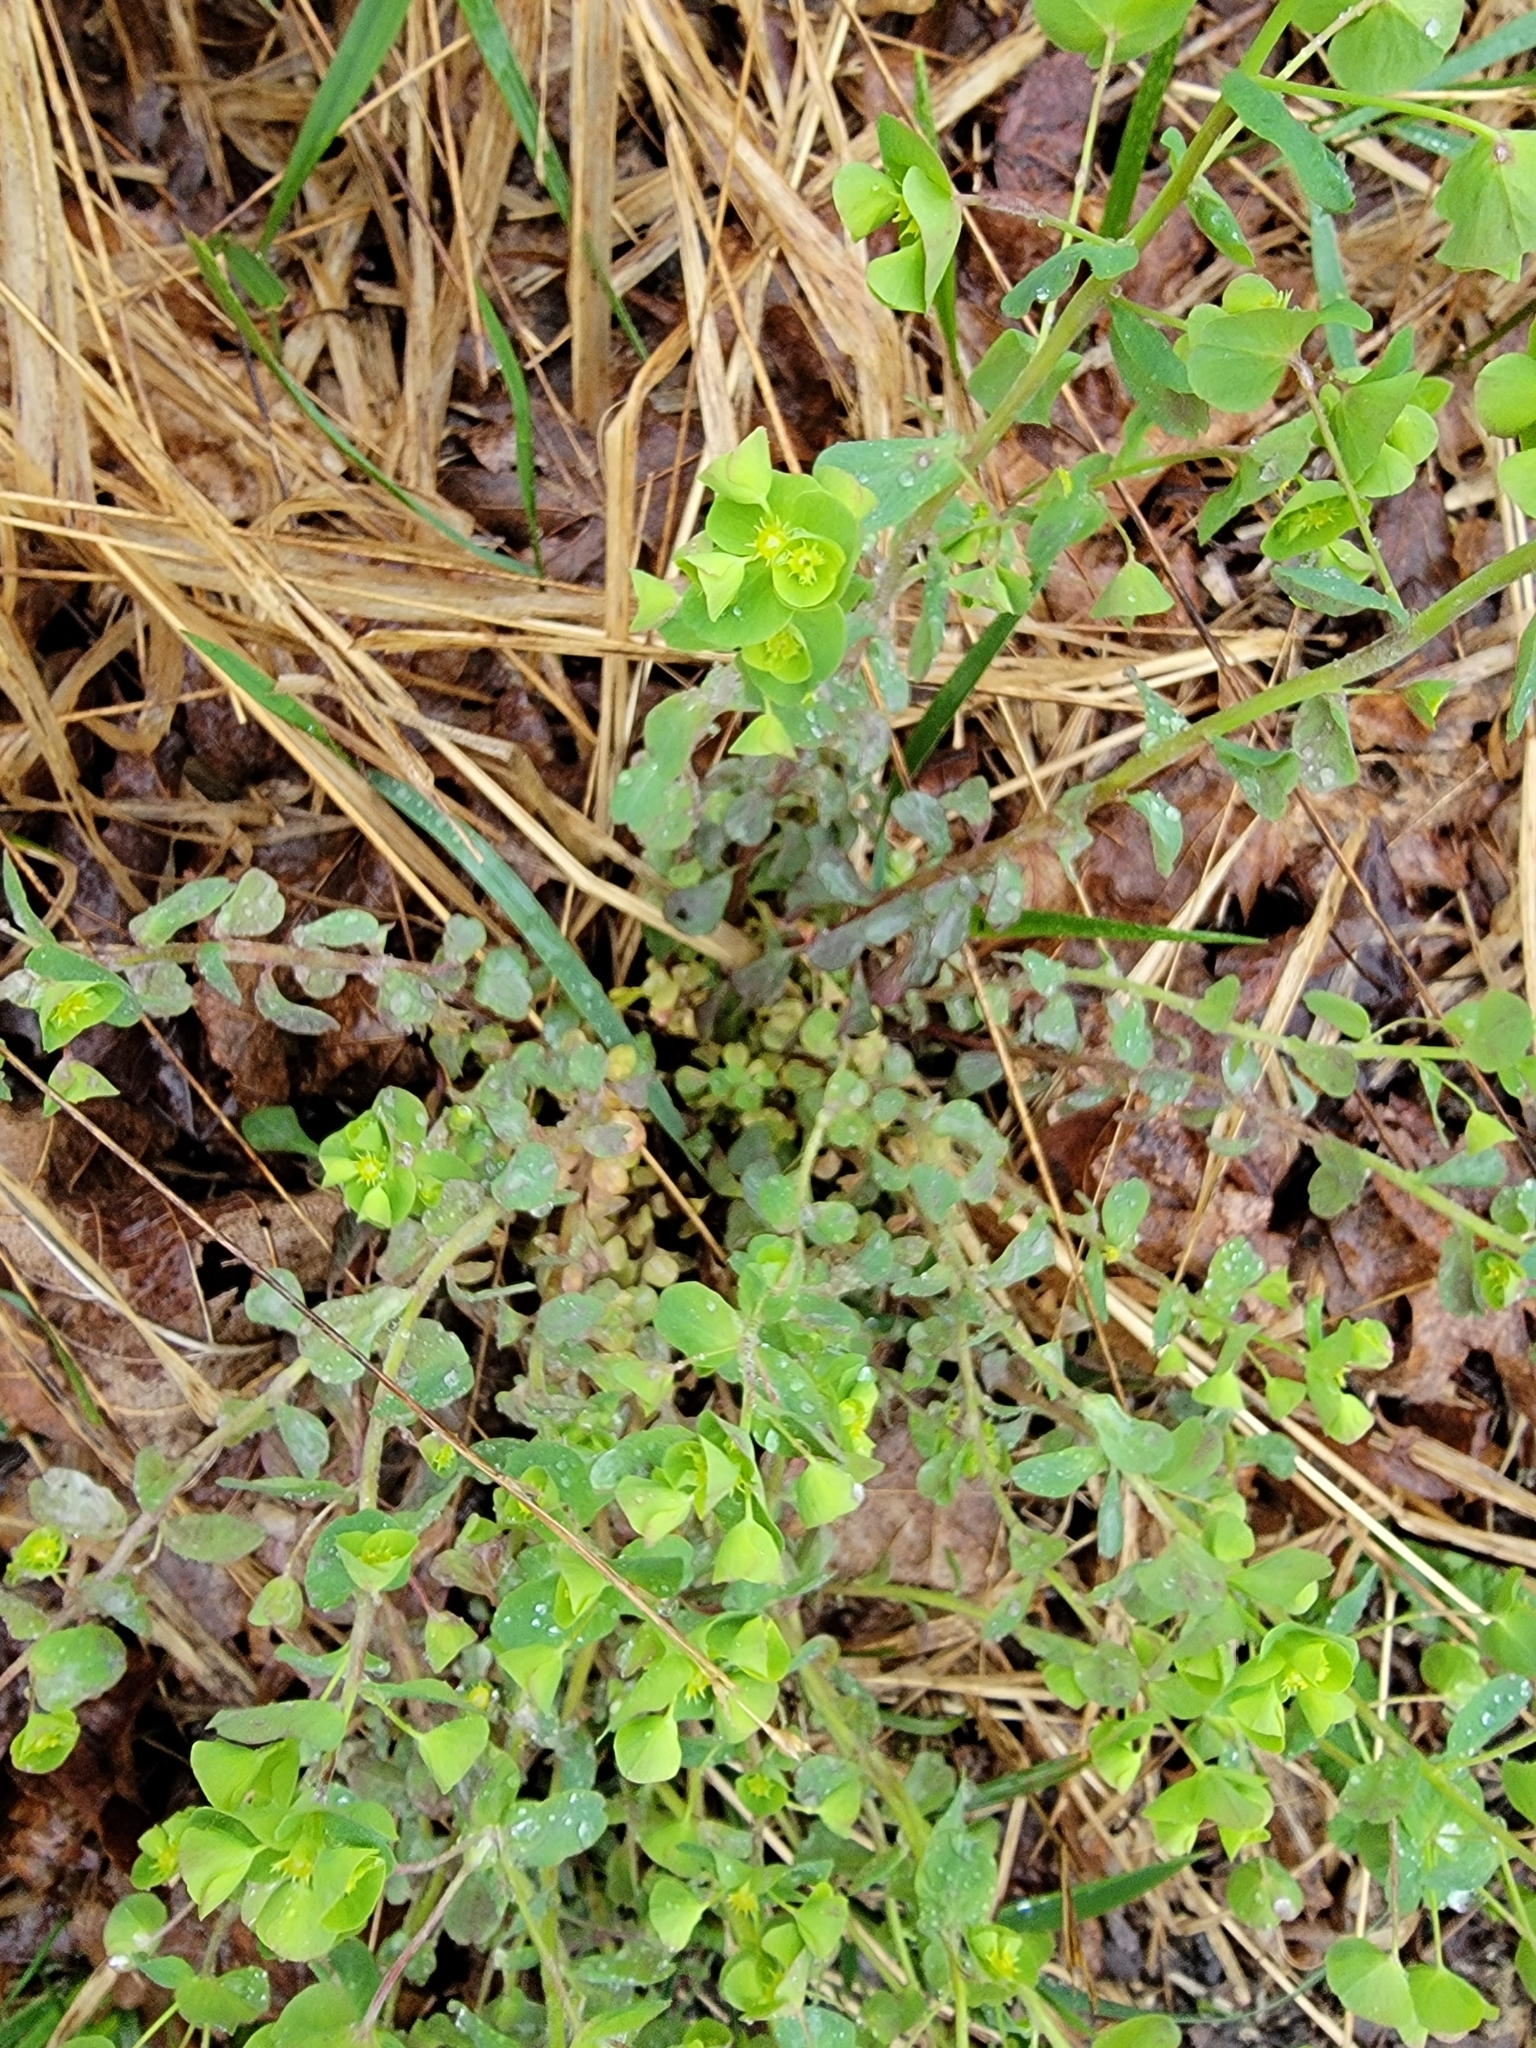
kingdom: Plantae
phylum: Tracheophyta
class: Magnoliopsida
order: Malpighiales
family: Euphorbiaceae
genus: Euphorbia
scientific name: Euphorbia commutata
